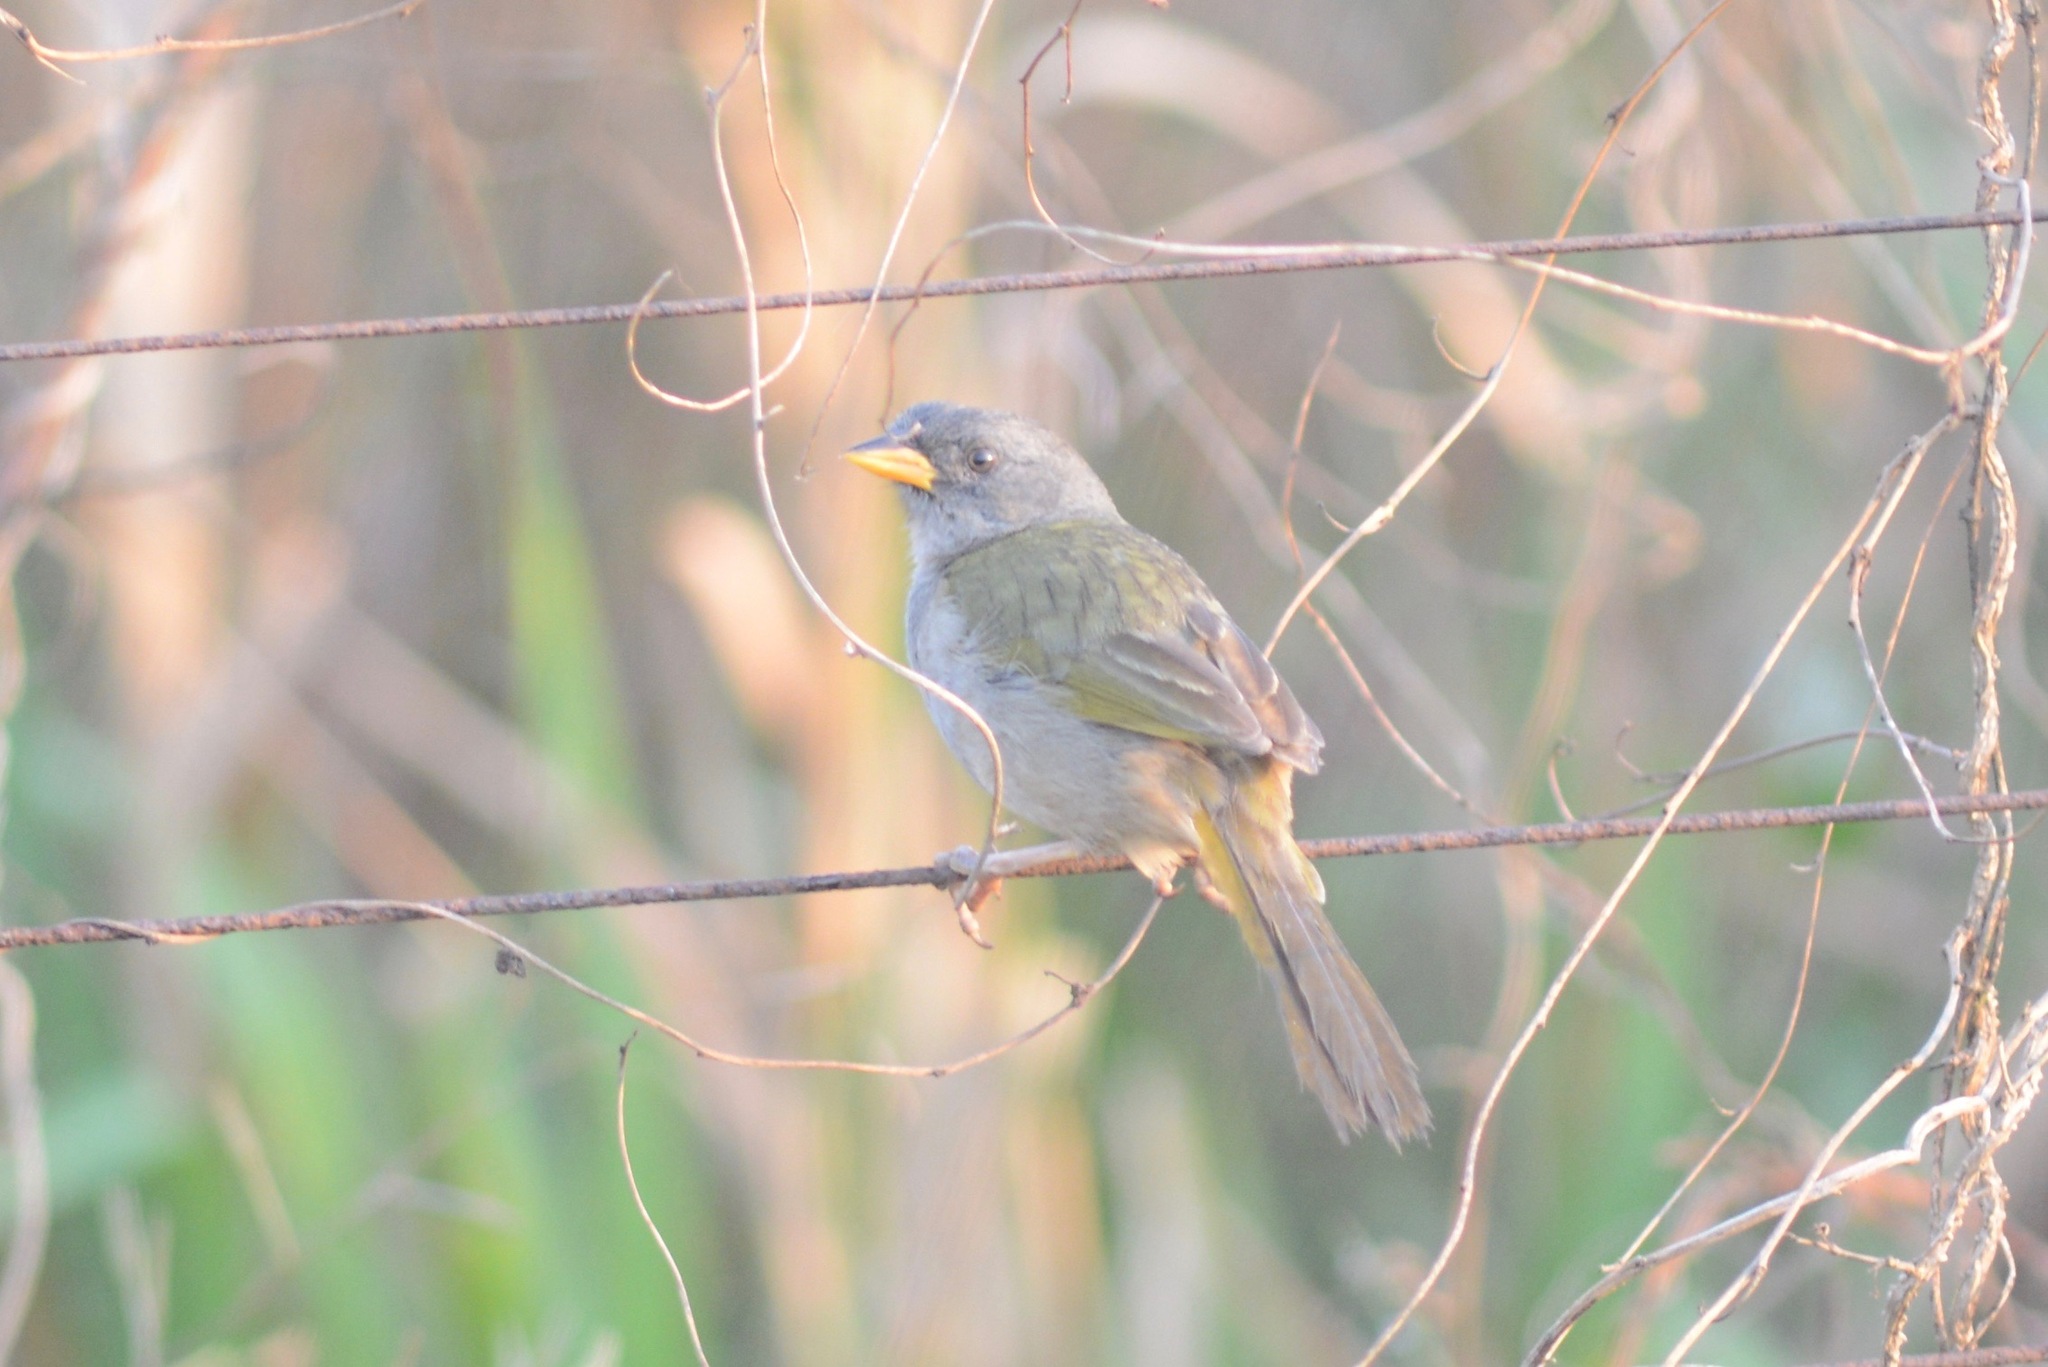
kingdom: Viruses
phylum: Nucleocytoviricota
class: Pokkesviricetes
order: Chitovirales
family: Poxviridae
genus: Avipoxvirus
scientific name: Avipoxvirus
